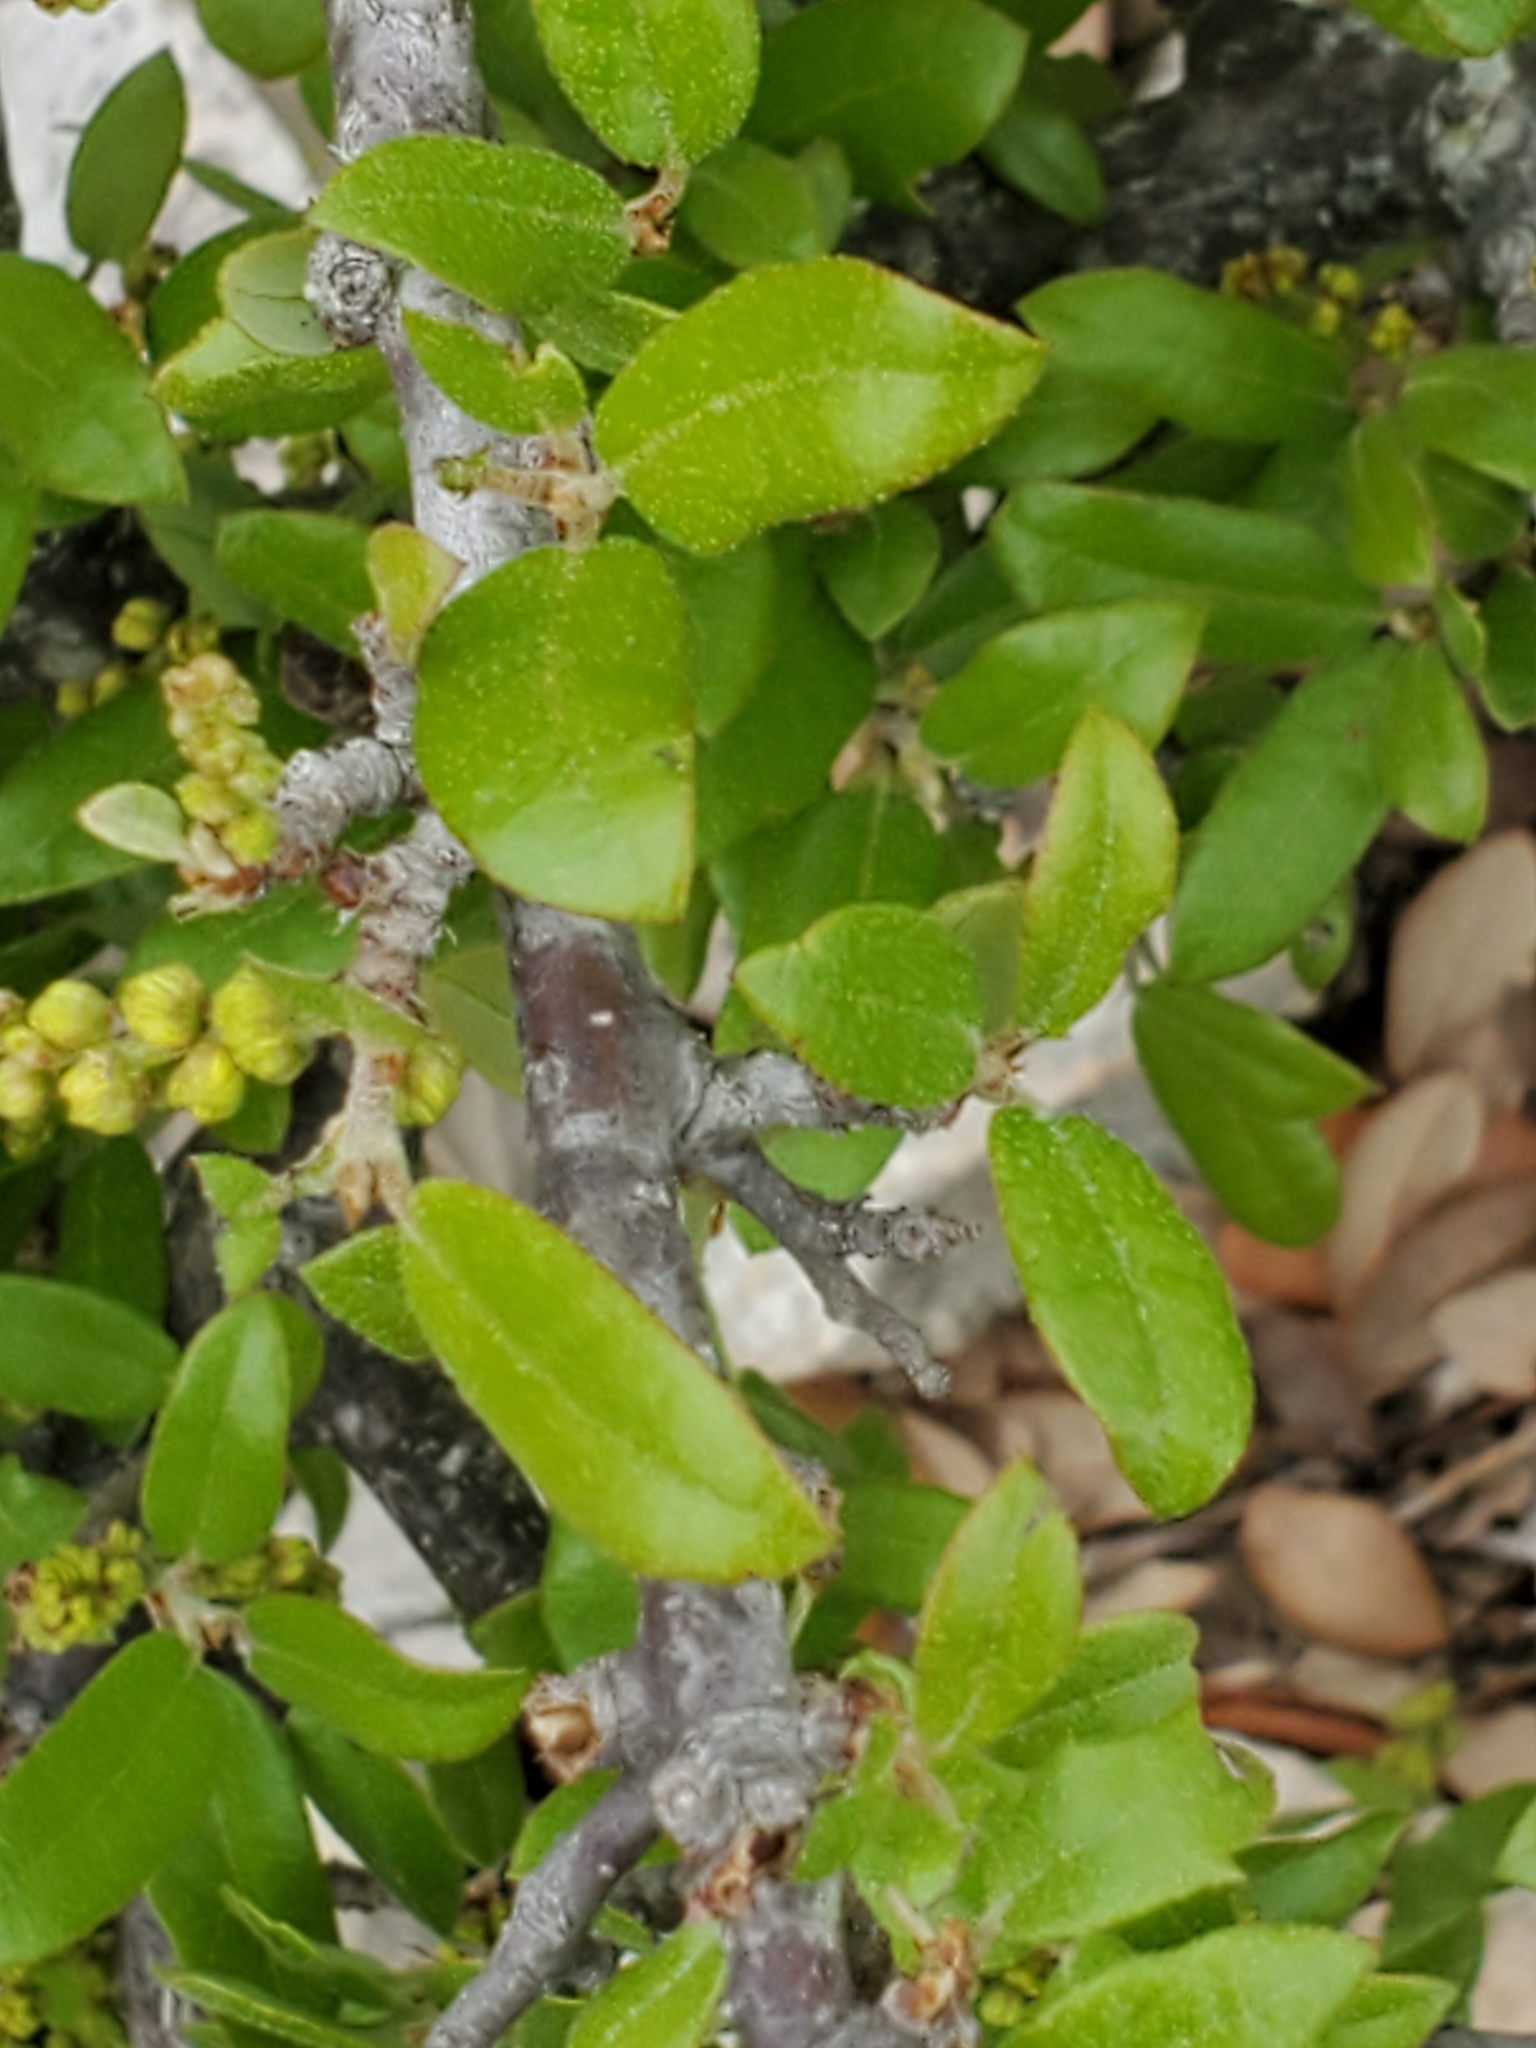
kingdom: Plantae
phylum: Tracheophyta
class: Magnoliopsida
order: Fagales
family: Fagaceae
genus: Quercus
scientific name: Quercus fusiformis
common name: Texas live oak
